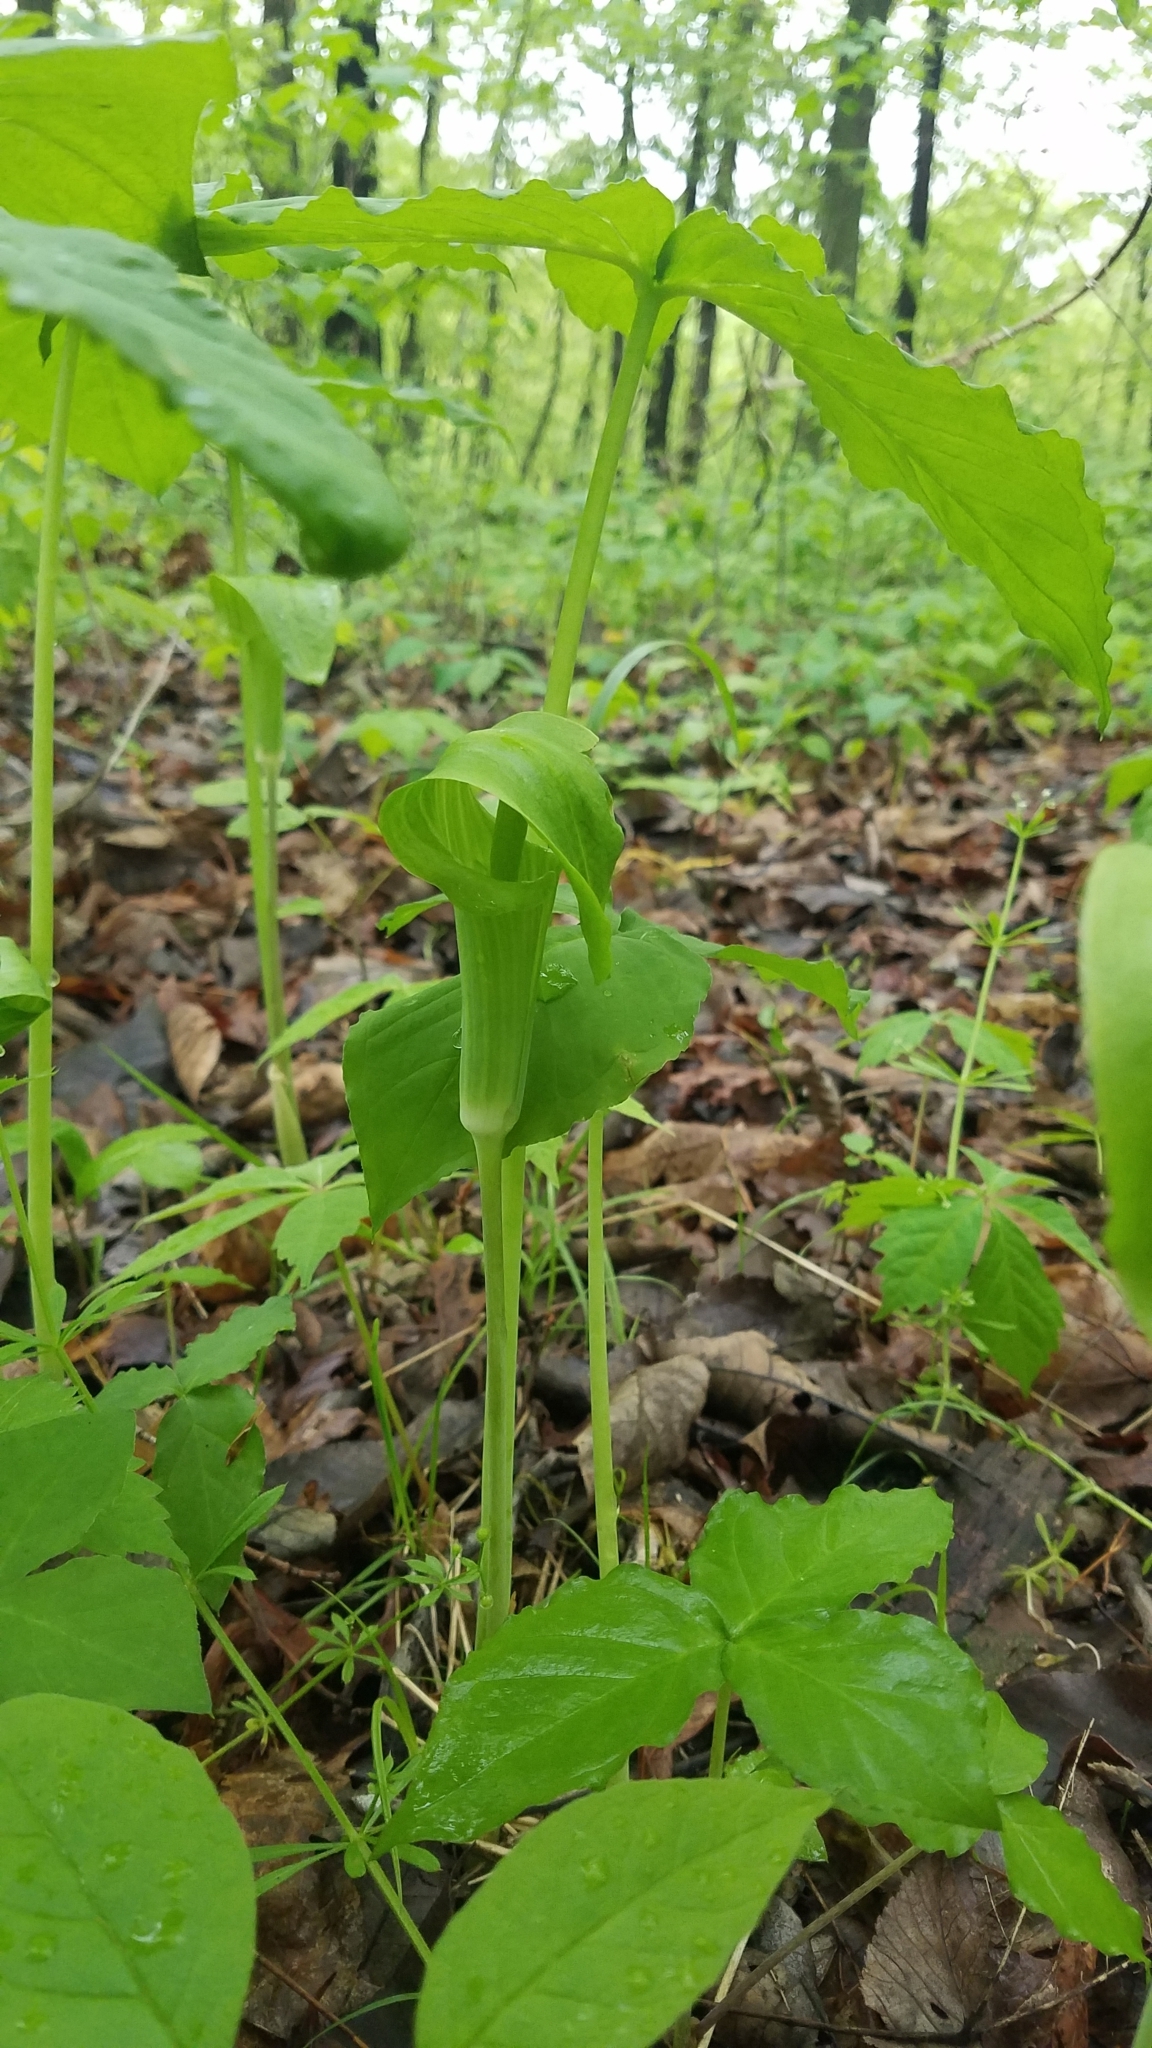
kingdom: Plantae
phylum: Tracheophyta
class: Liliopsida
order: Alismatales
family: Araceae
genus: Arisaema
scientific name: Arisaema triphyllum
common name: Jack-in-the-pulpit
